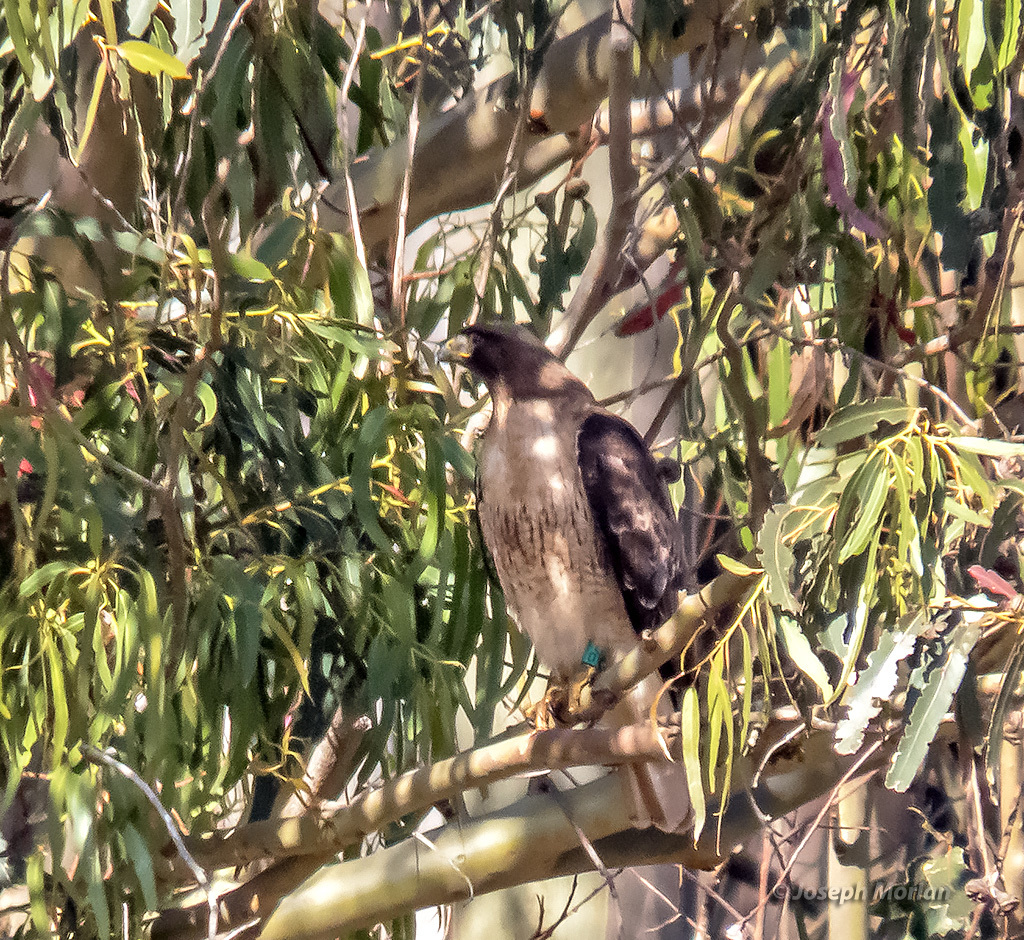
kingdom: Animalia
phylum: Chordata
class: Aves
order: Accipitriformes
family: Accipitridae
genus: Buteo
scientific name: Buteo jamaicensis
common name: Red-tailed hawk
